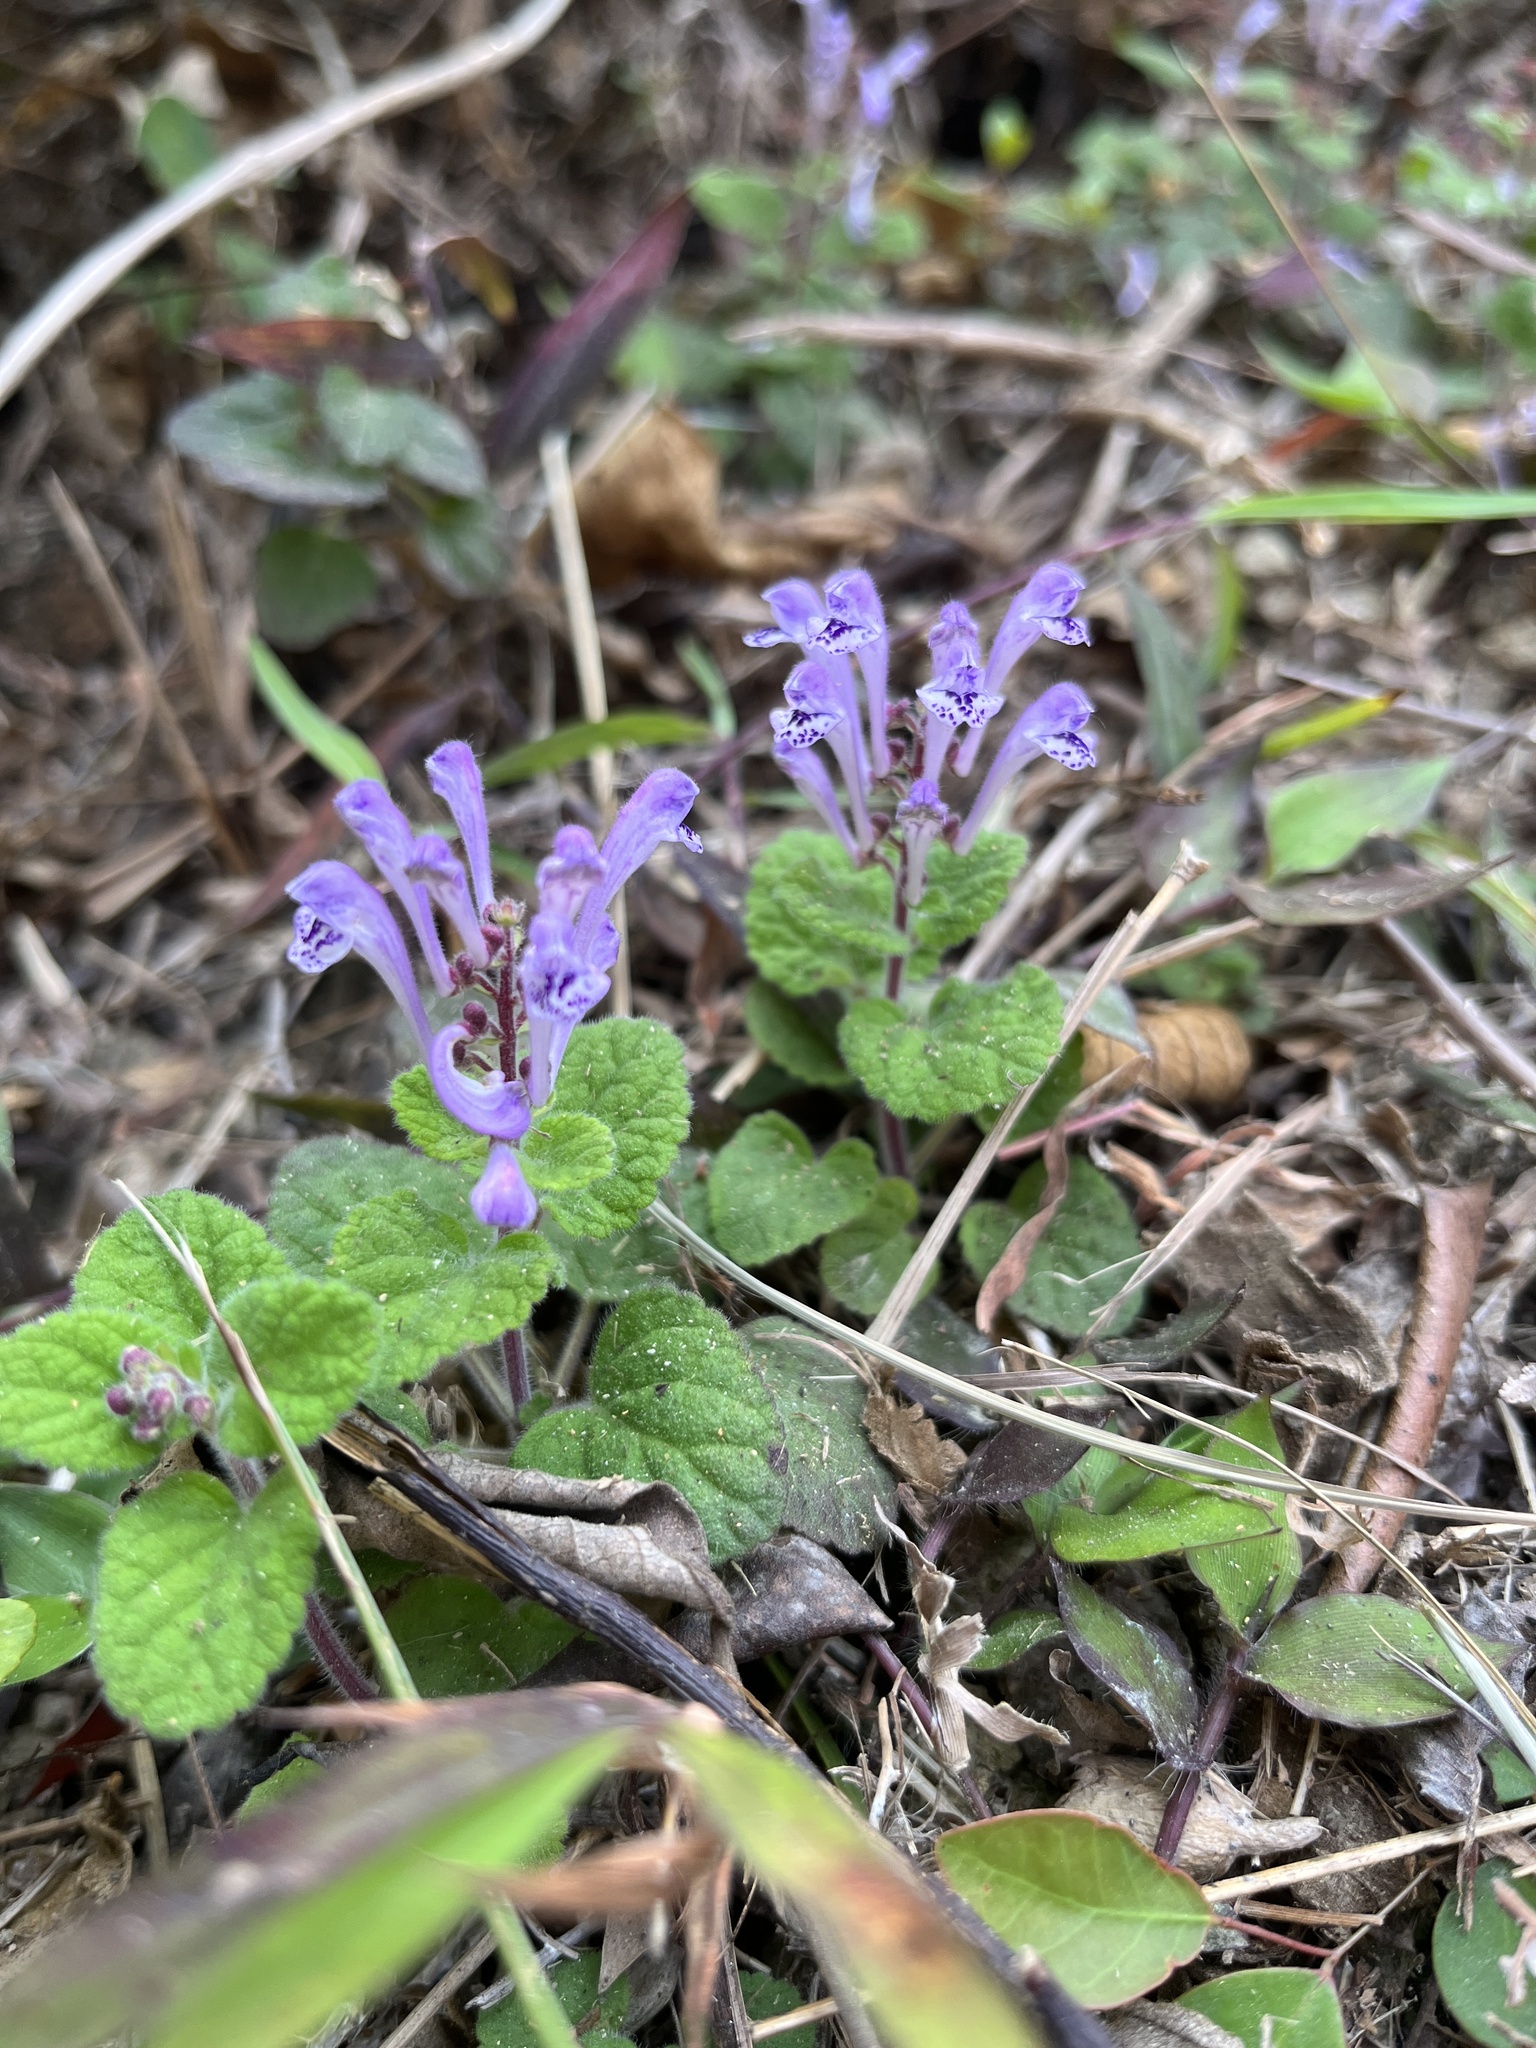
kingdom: Plantae
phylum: Tracheophyta
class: Magnoliopsida
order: Lamiales
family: Lamiaceae
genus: Scutellaria
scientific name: Scutellaria indica
